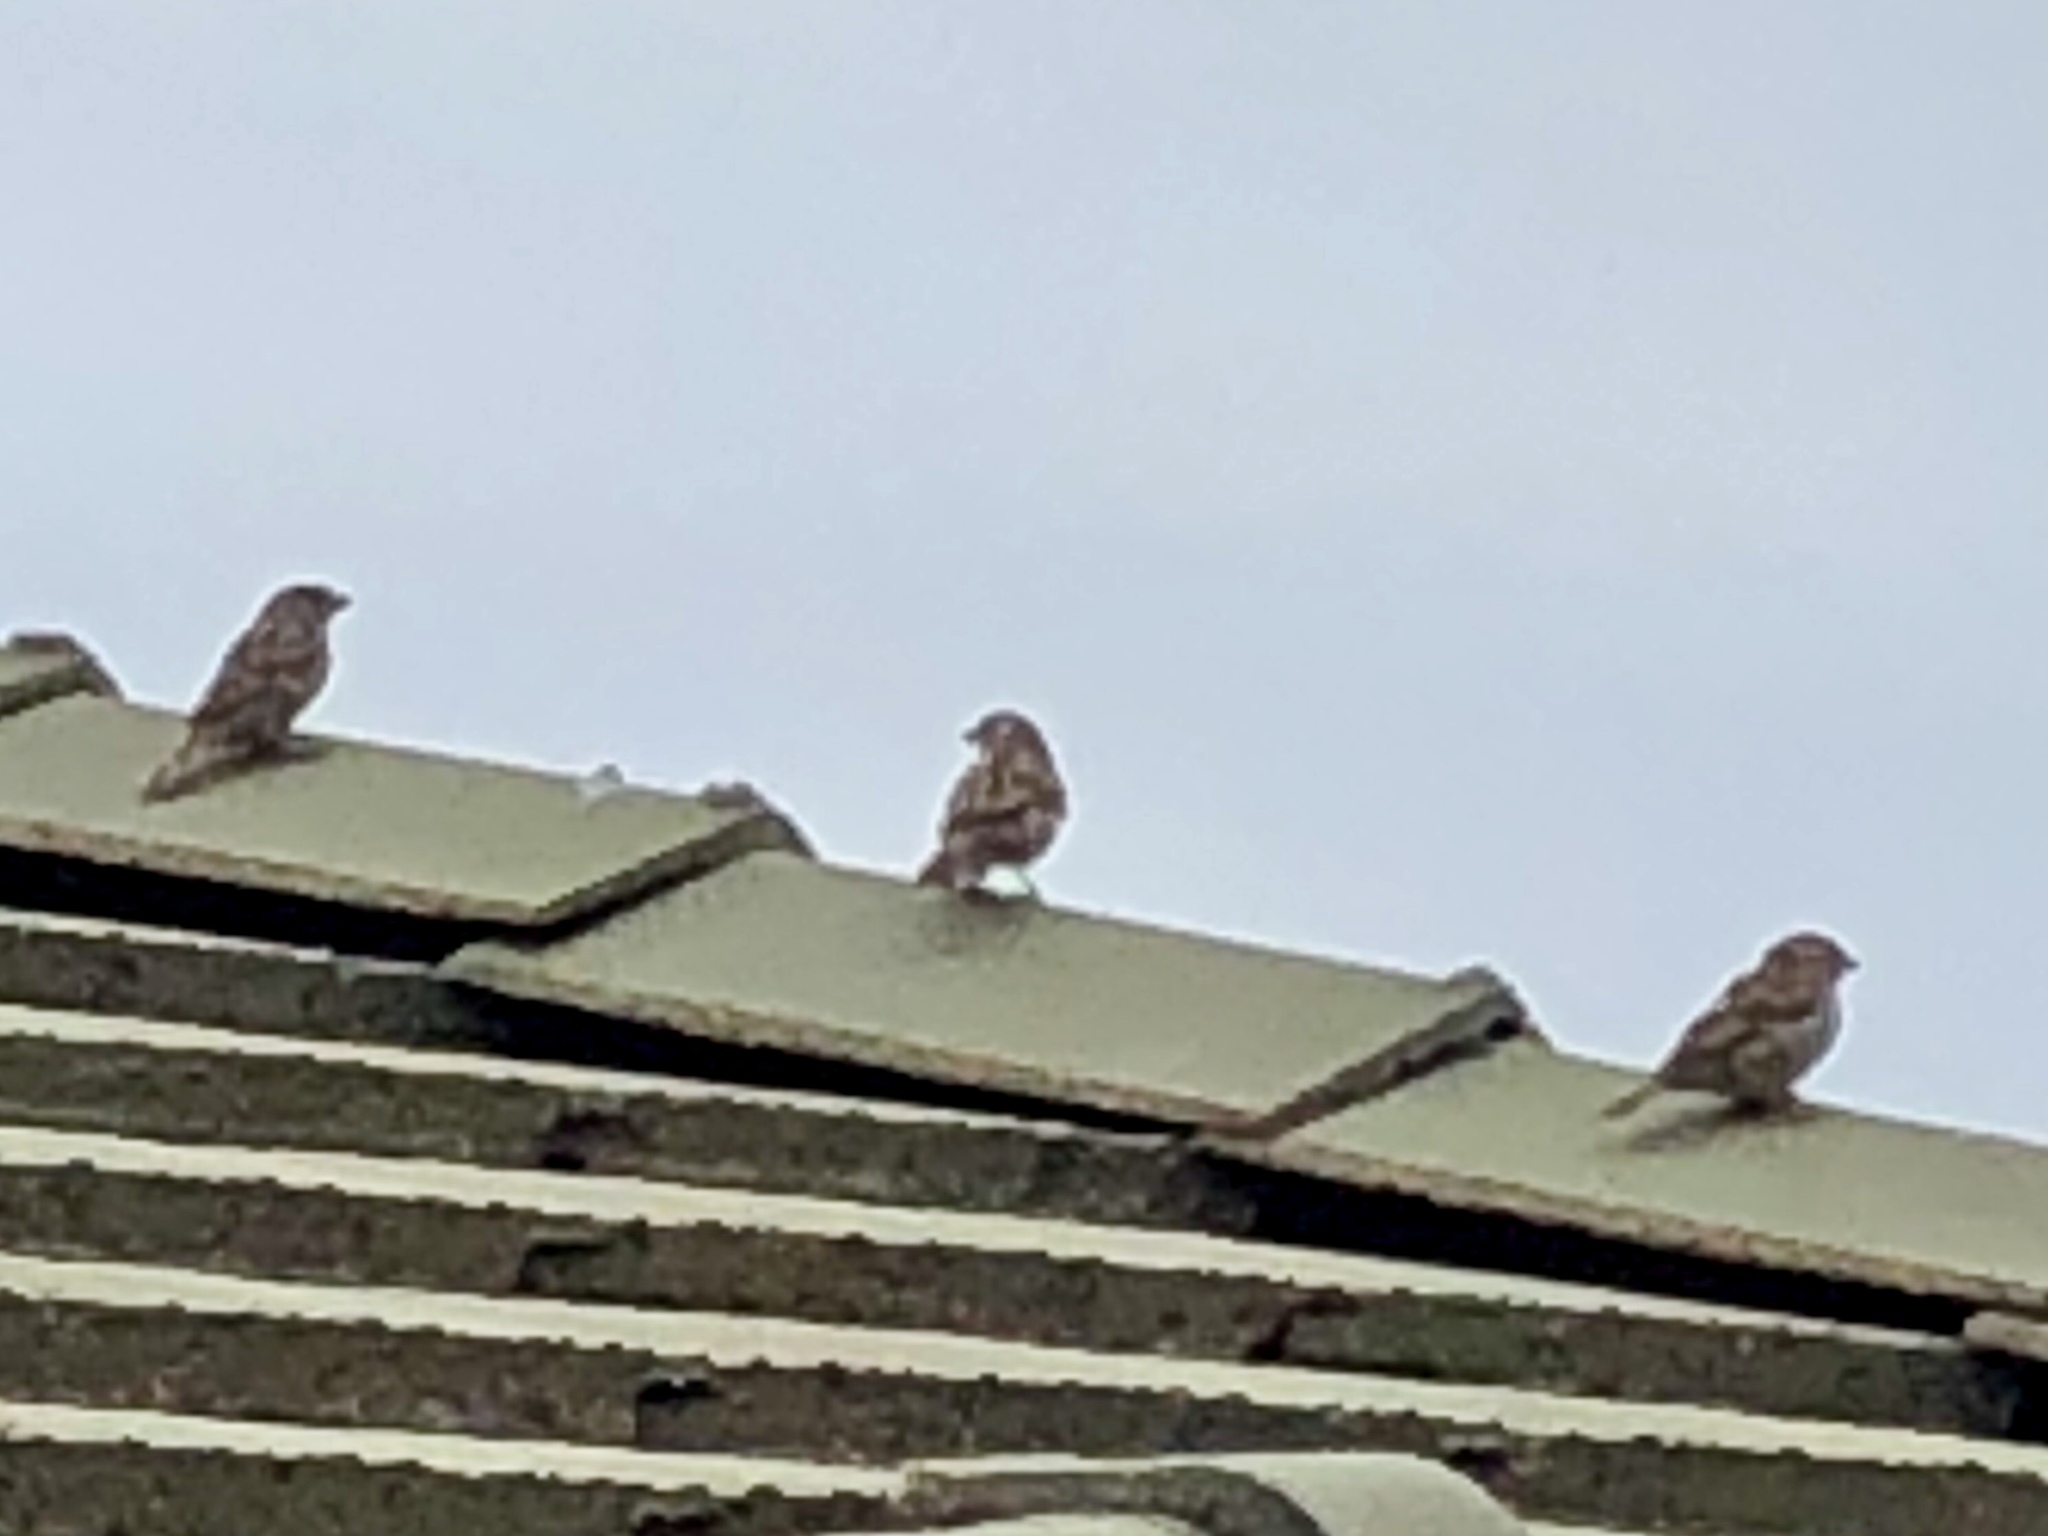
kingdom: Animalia
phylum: Chordata
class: Aves
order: Passeriformes
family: Passeridae
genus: Passer
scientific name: Passer domesticus
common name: House sparrow
